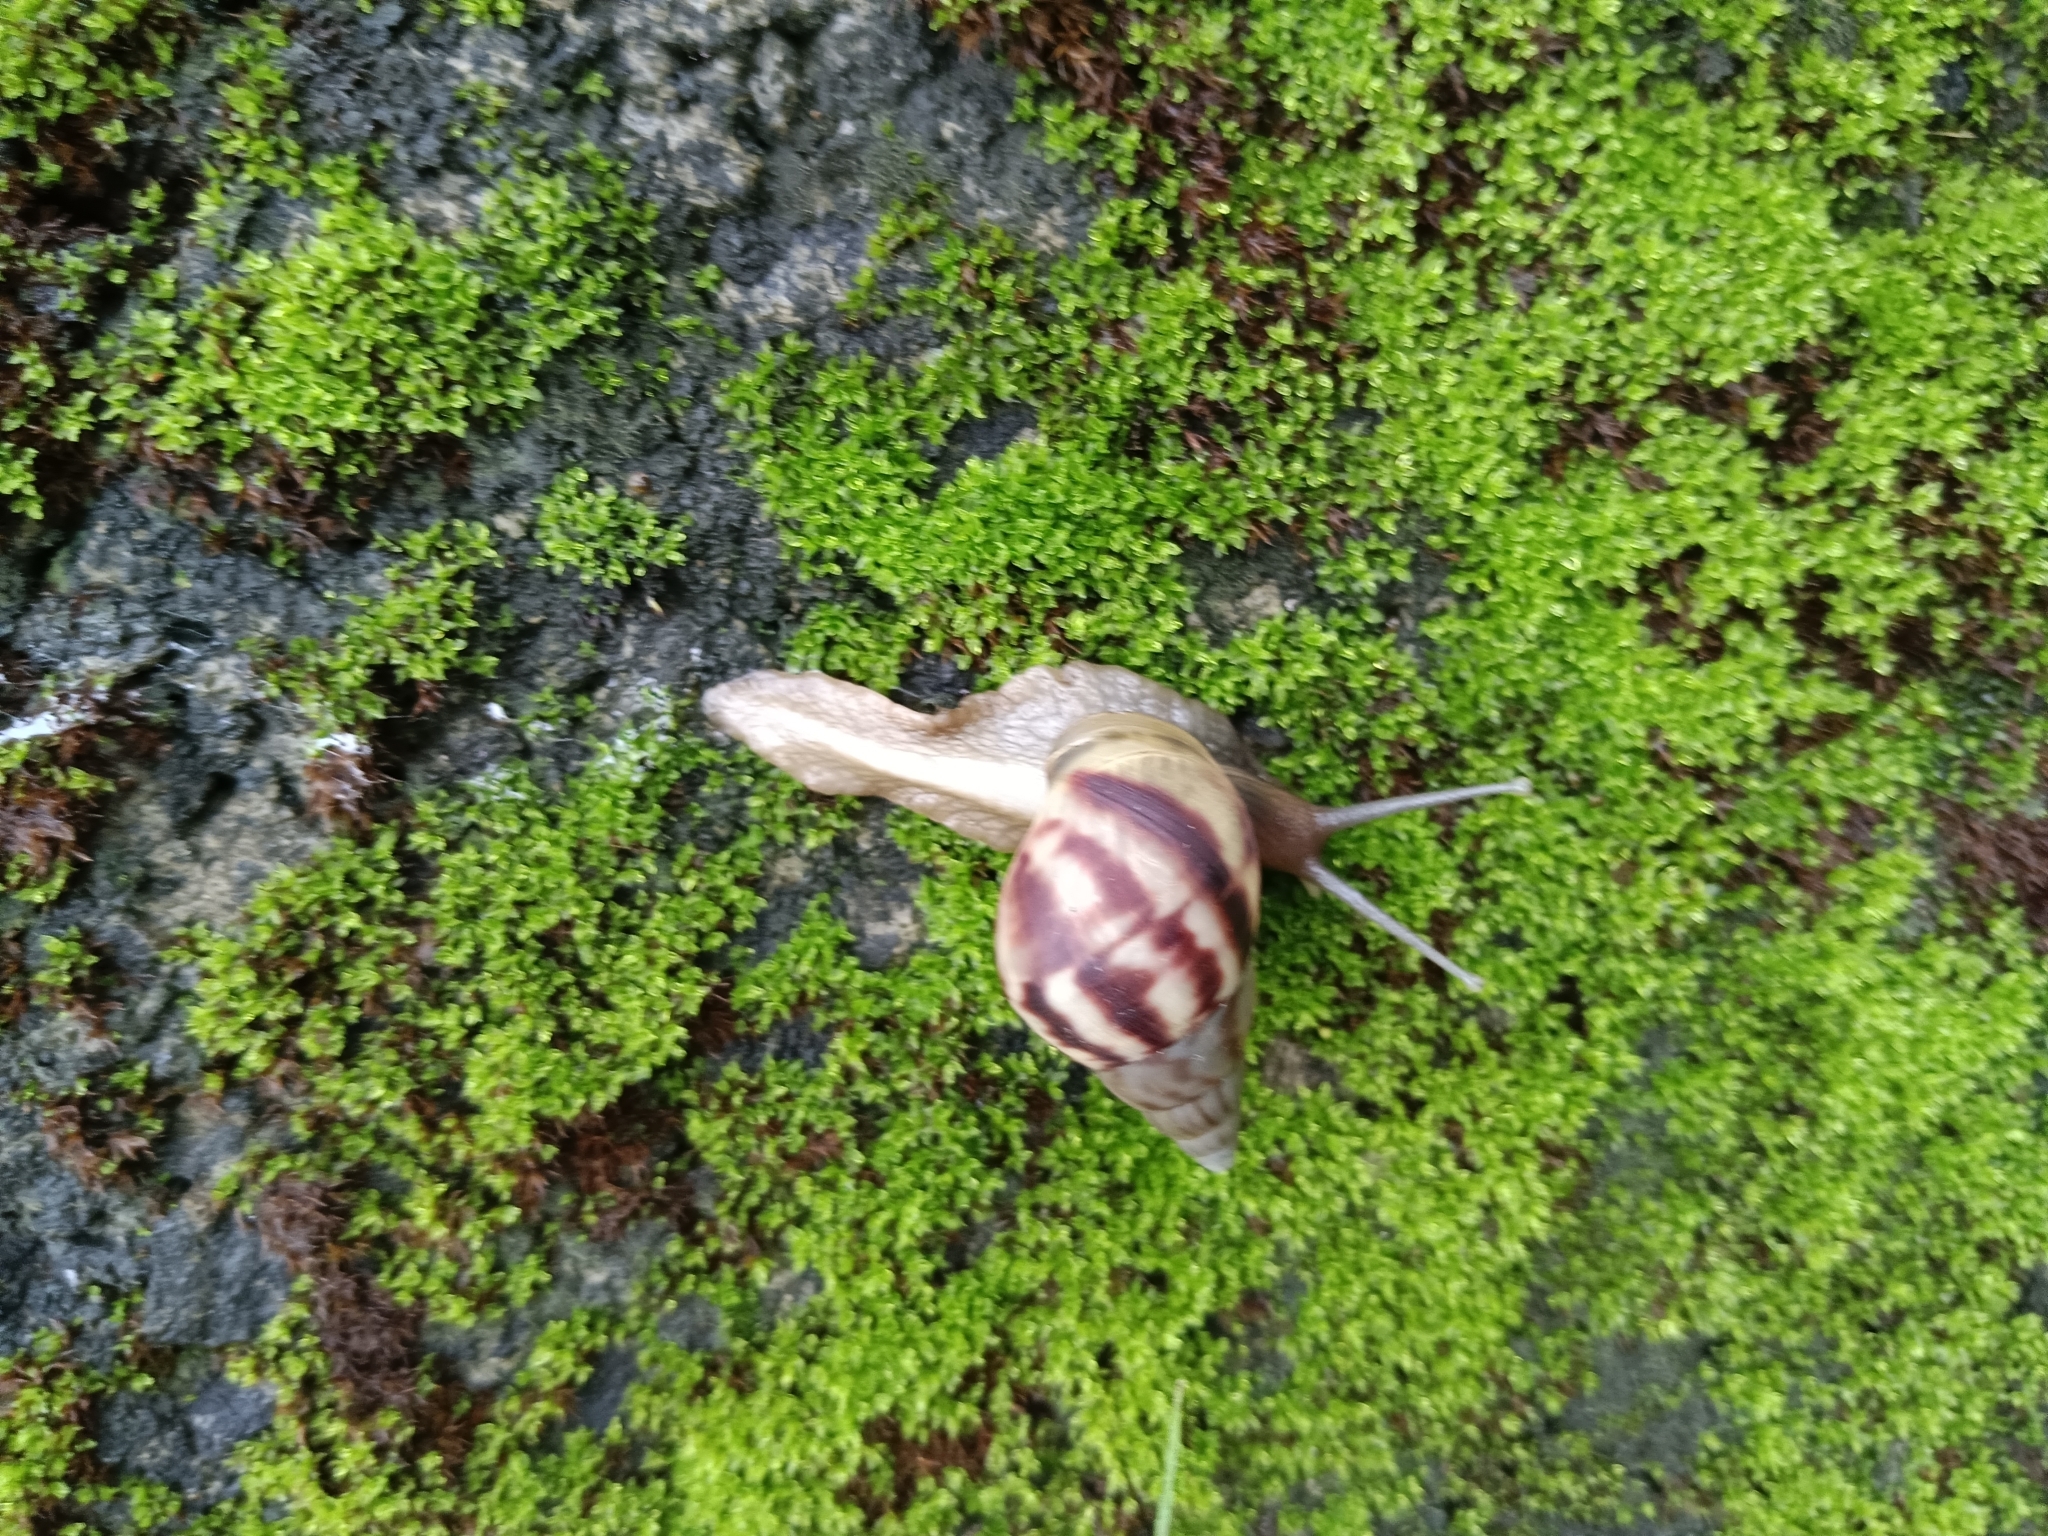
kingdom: Animalia
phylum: Mollusca
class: Gastropoda
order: Stylommatophora
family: Achatinidae
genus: Lissachatina
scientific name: Lissachatina fulica
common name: Giant african snail
